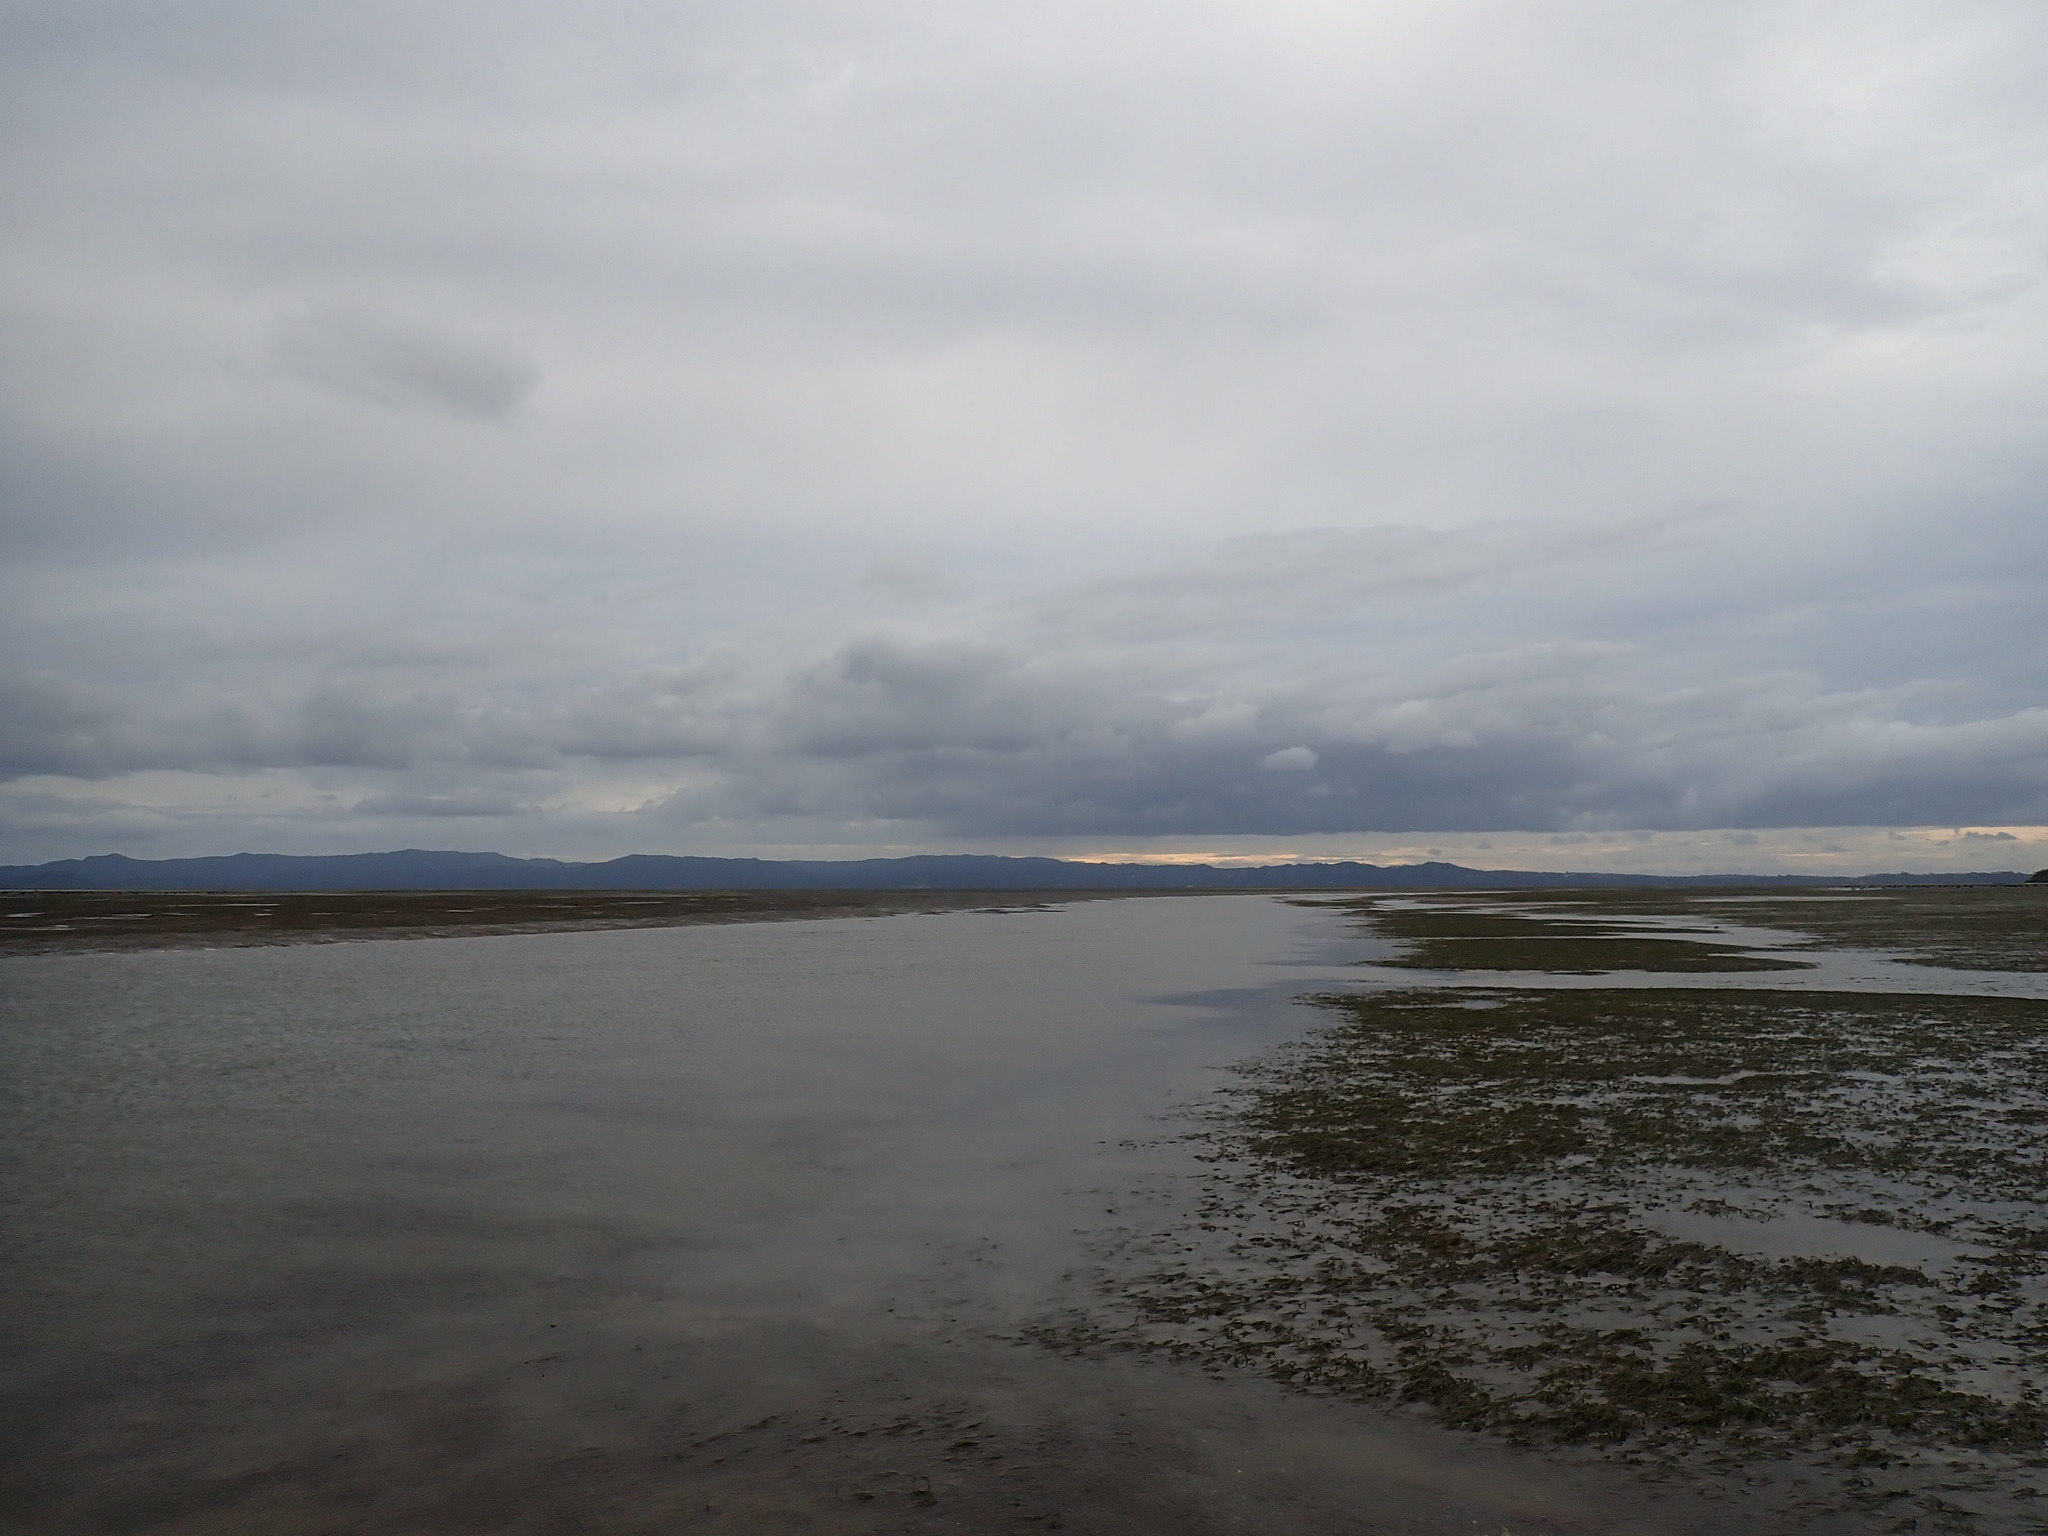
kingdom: Plantae
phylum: Tracheophyta
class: Liliopsida
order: Alismatales
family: Zosteraceae
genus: Zostera
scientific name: Zostera novazelandica
